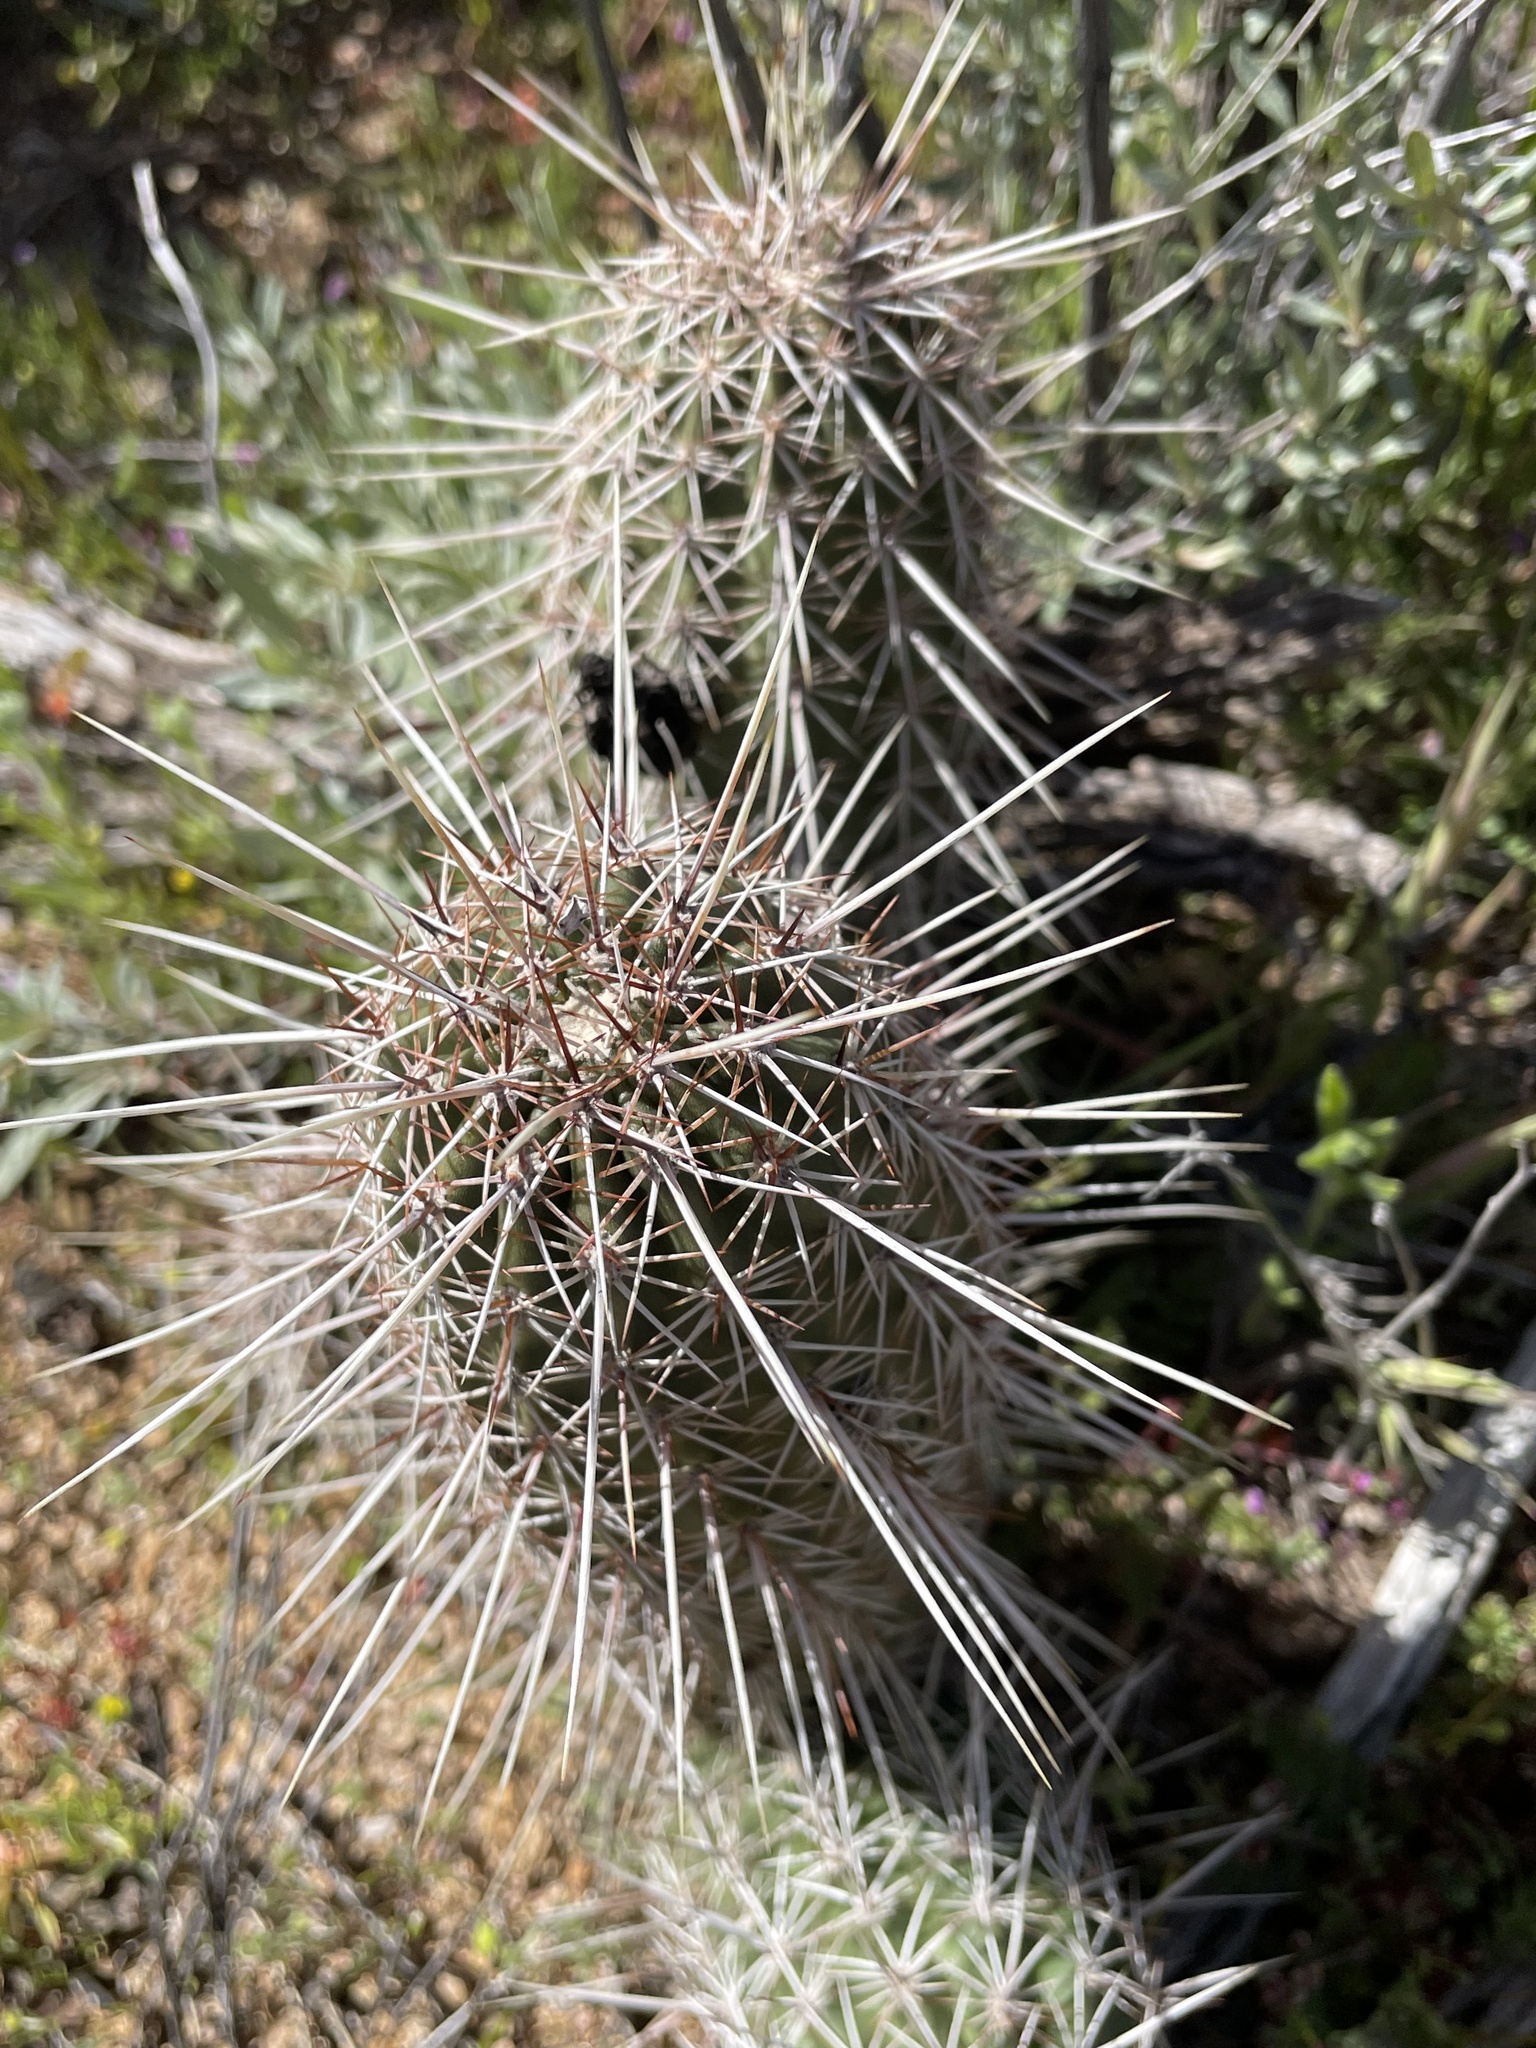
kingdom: Plantae
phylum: Tracheophyta
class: Magnoliopsida
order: Caryophyllales
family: Cactaceae
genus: Echinocereus
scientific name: Echinocereus fasciculatus
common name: Bundle hedgehog
